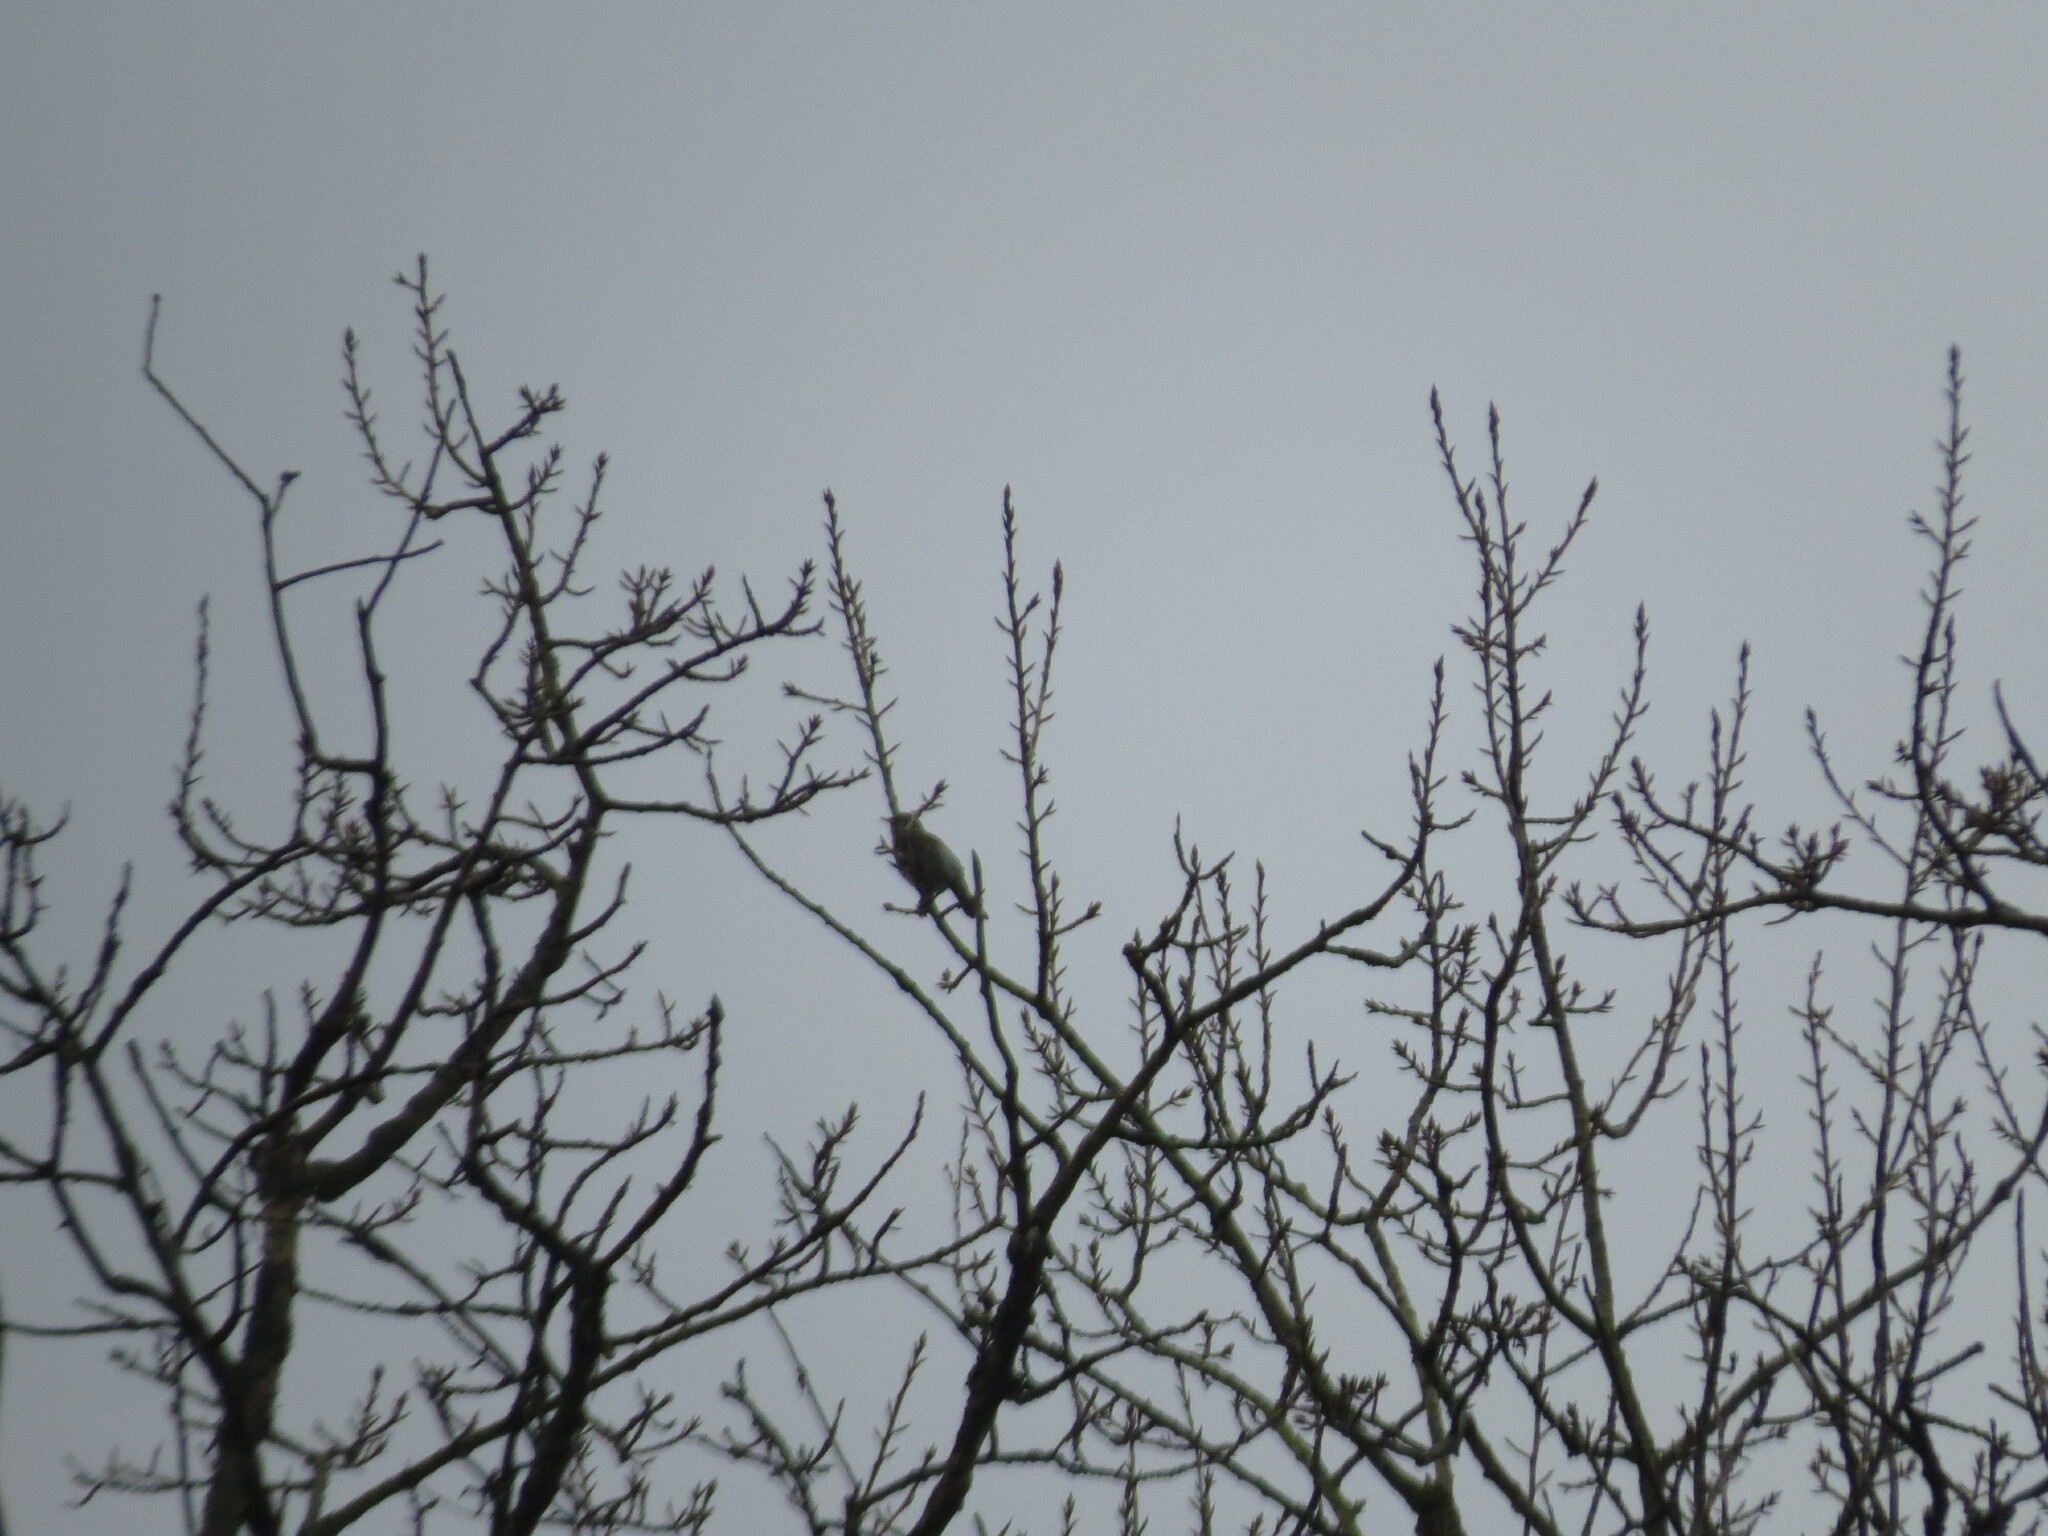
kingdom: Animalia
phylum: Chordata
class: Aves
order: Passeriformes
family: Turdidae
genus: Turdus
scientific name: Turdus pilaris
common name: Fieldfare
